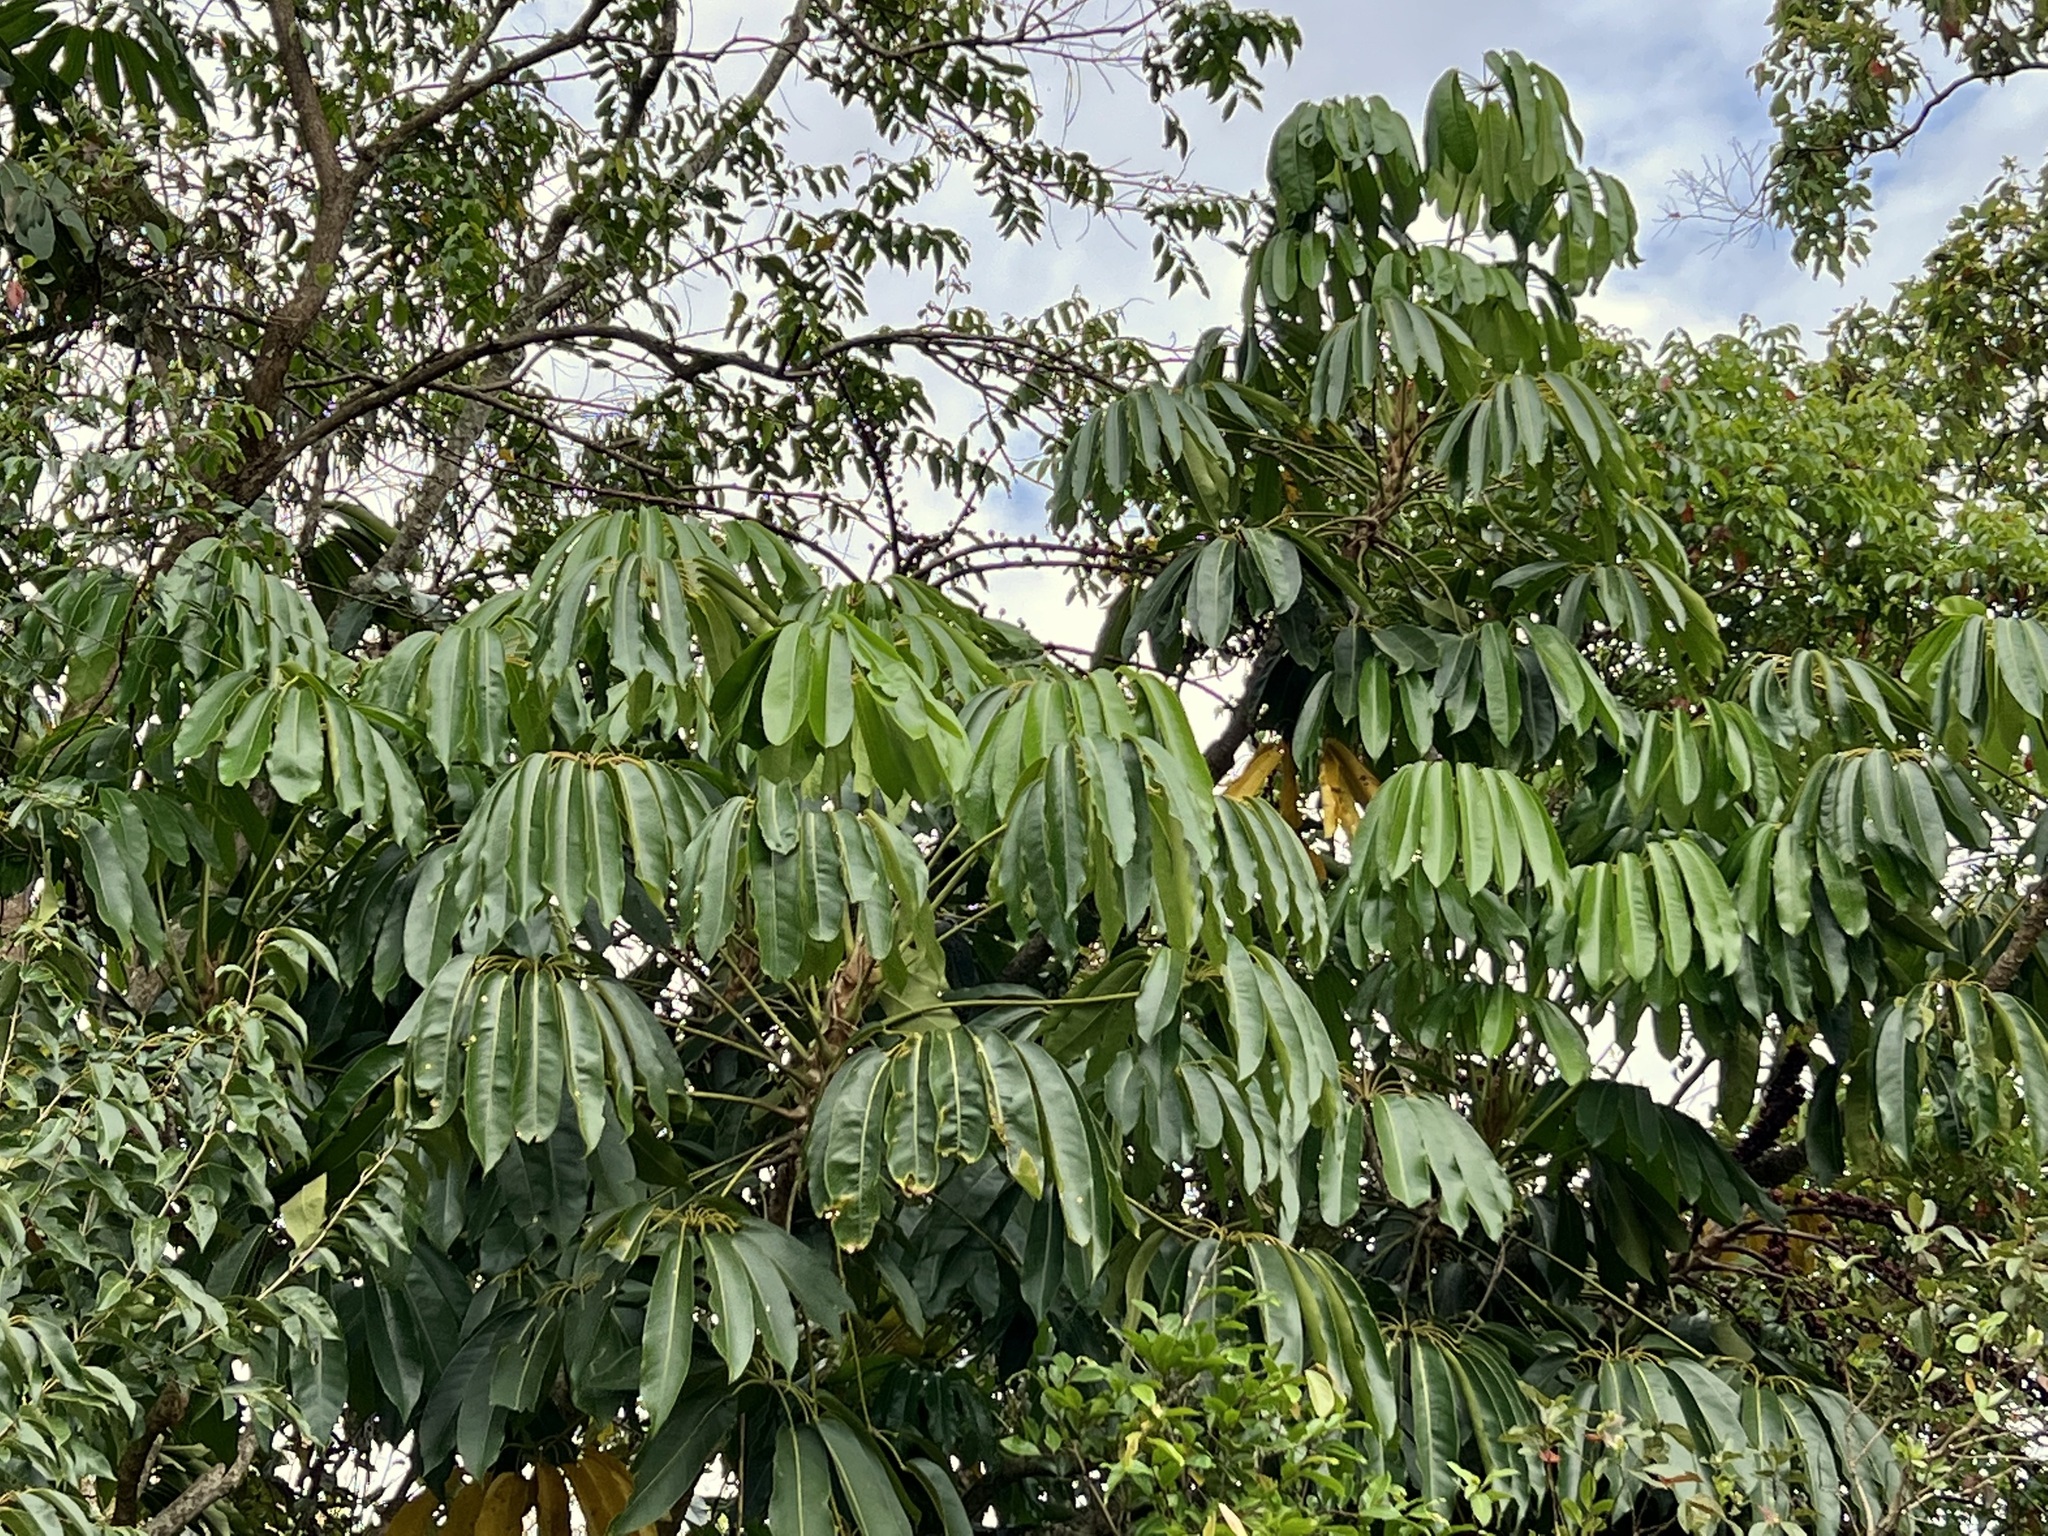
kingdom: Plantae
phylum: Tracheophyta
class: Magnoliopsida
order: Apiales
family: Araliaceae
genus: Heptapleurum
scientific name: Heptapleurum actinophyllum
